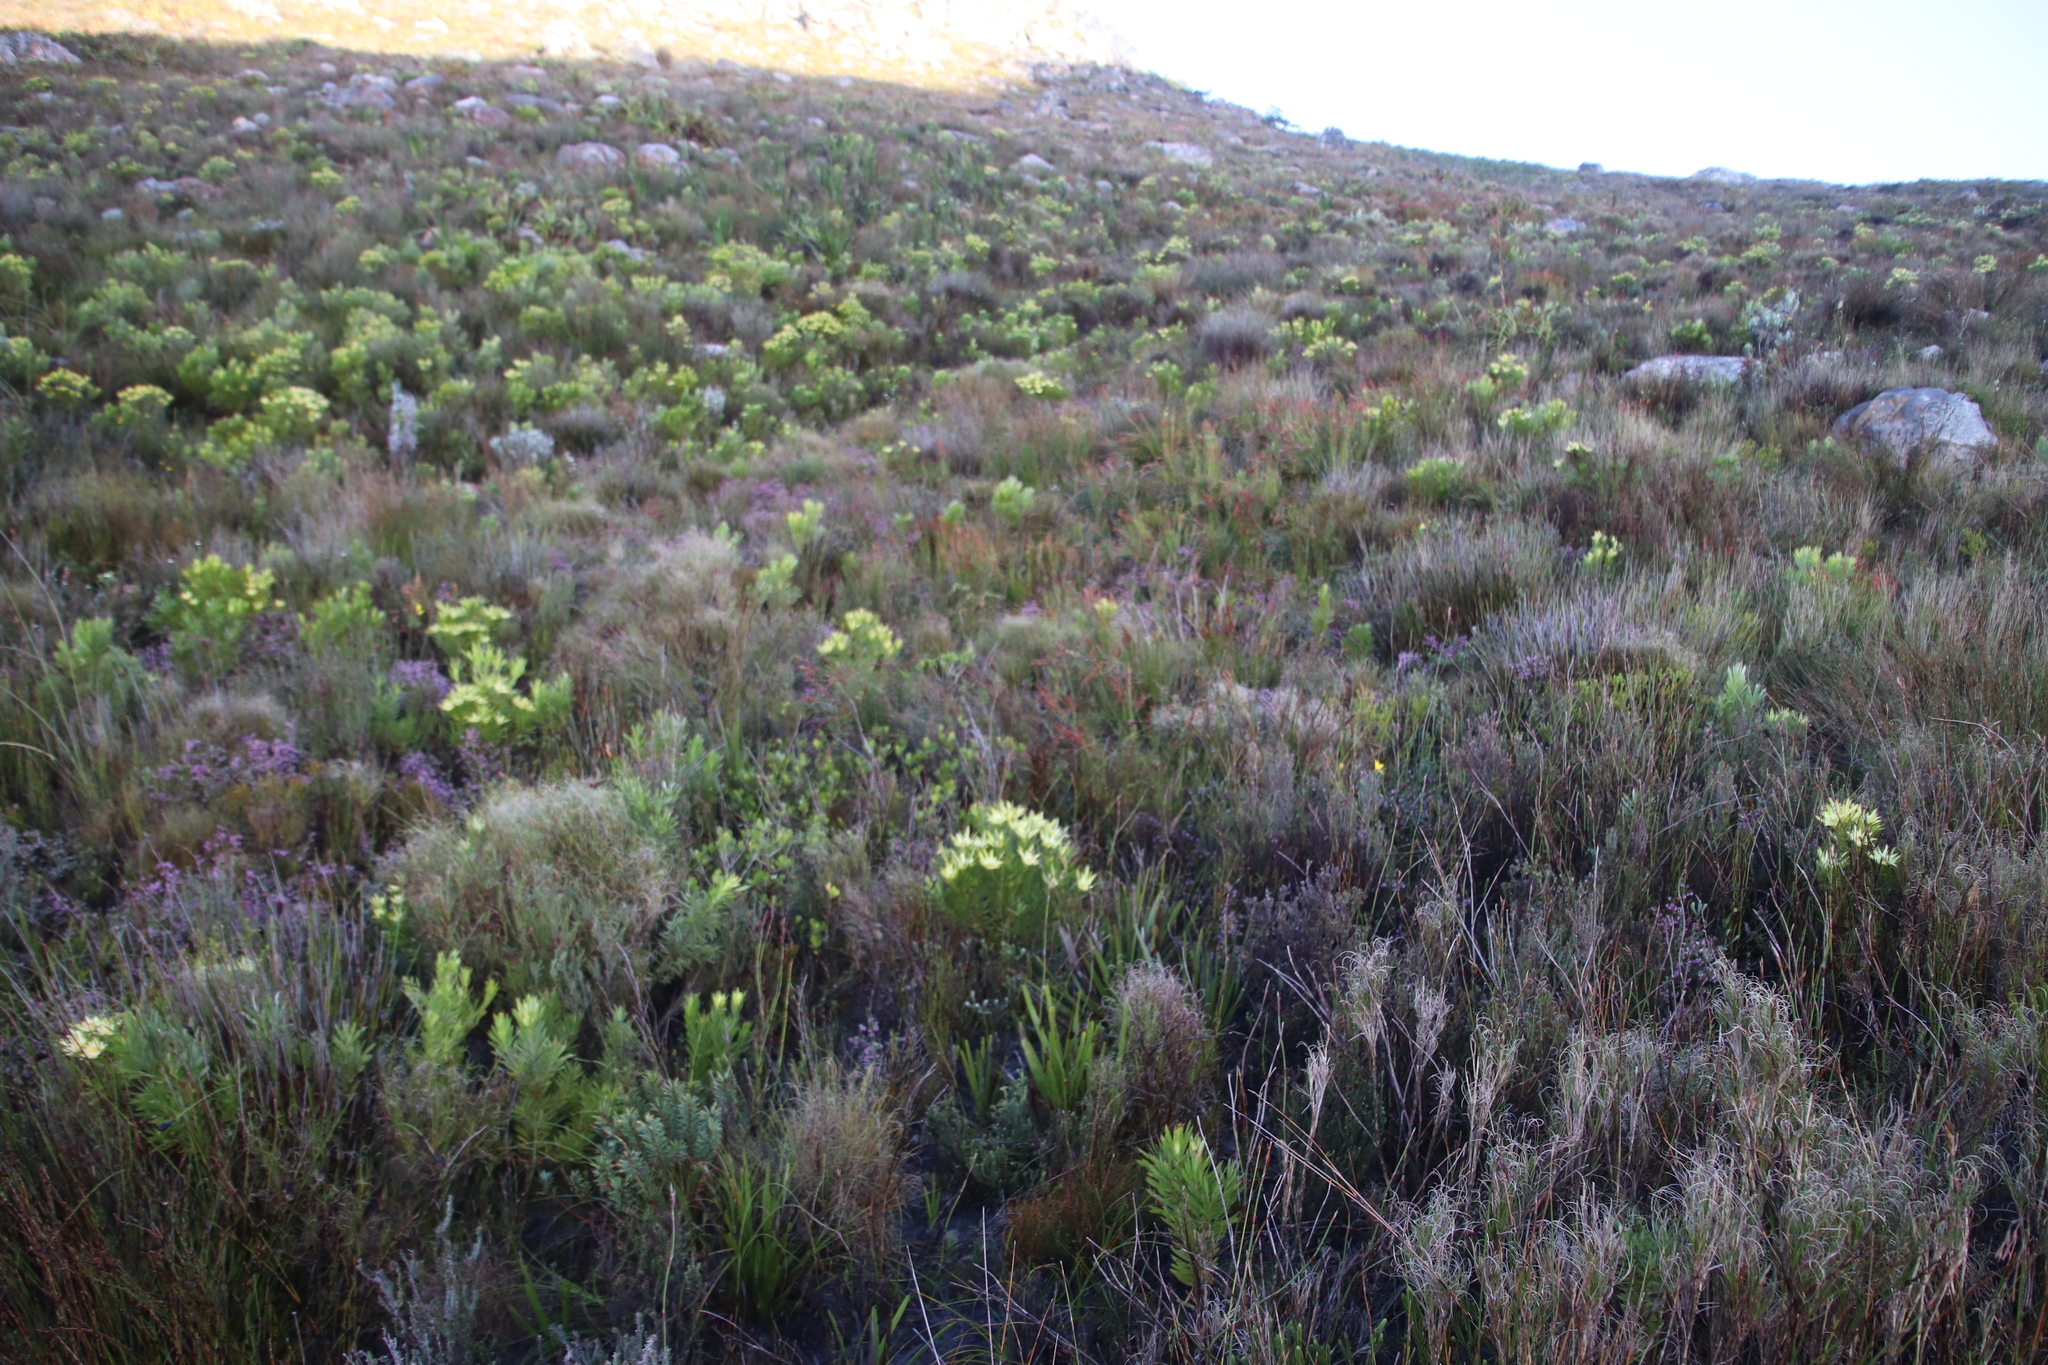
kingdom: Plantae
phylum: Tracheophyta
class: Magnoliopsida
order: Proteales
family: Proteaceae
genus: Leucadendron
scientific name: Leucadendron xanthoconus
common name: Sickle-leaf conebush
